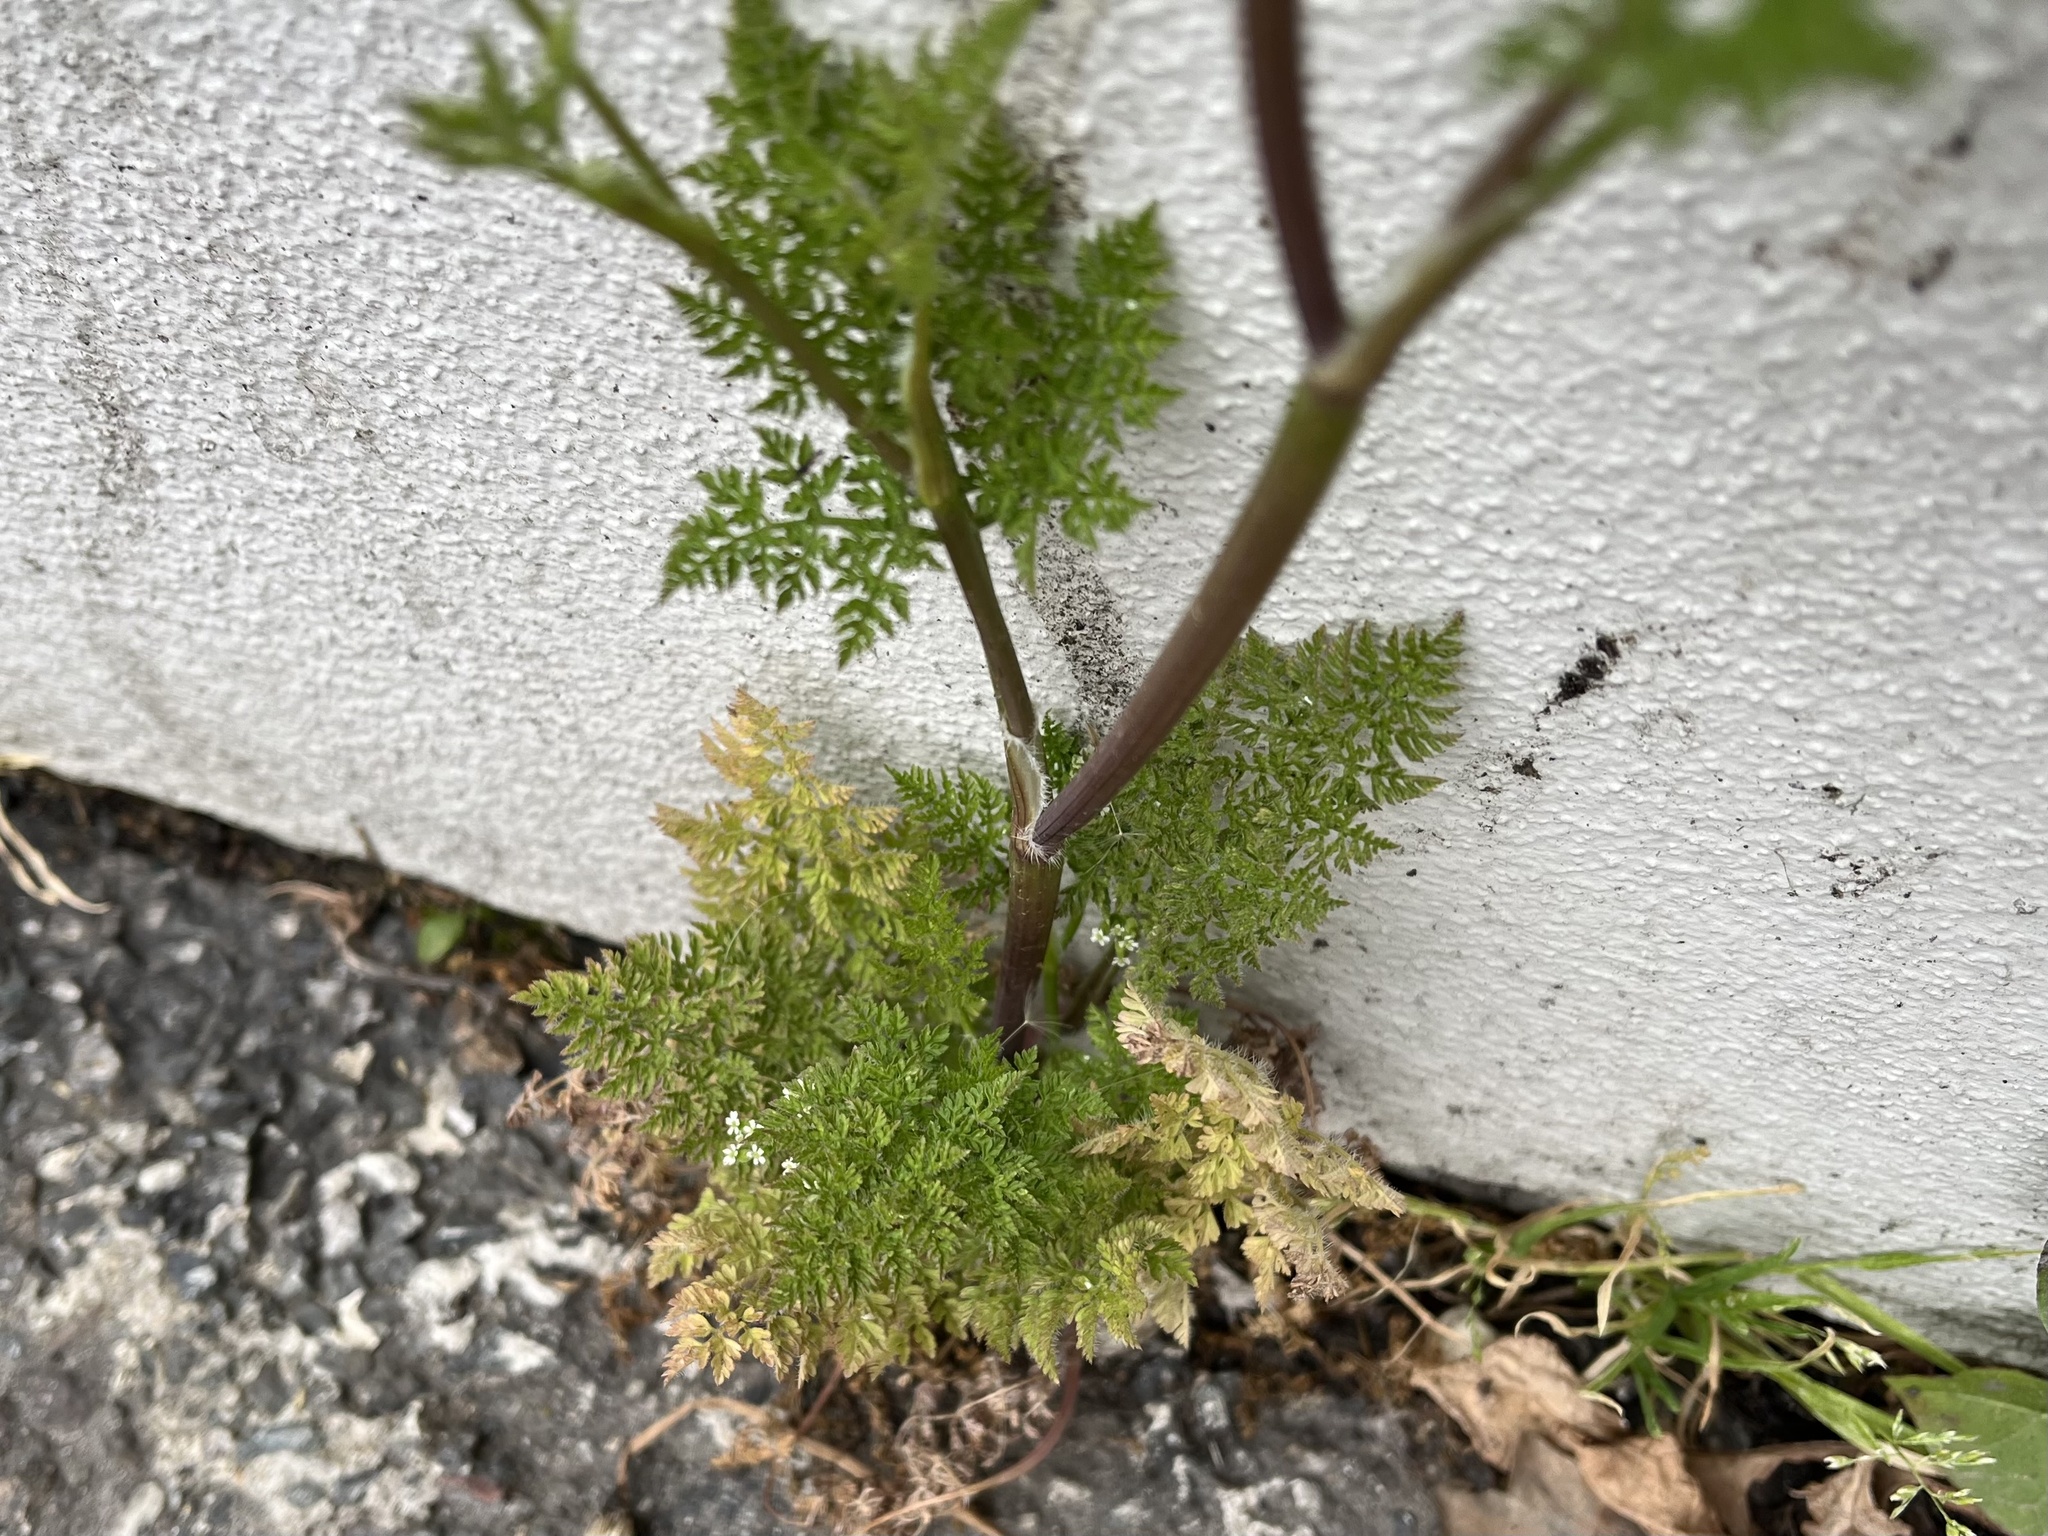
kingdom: Plantae
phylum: Tracheophyta
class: Magnoliopsida
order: Apiales
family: Apiaceae
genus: Anthriscus
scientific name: Anthriscus caucalis
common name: Bur chervil
